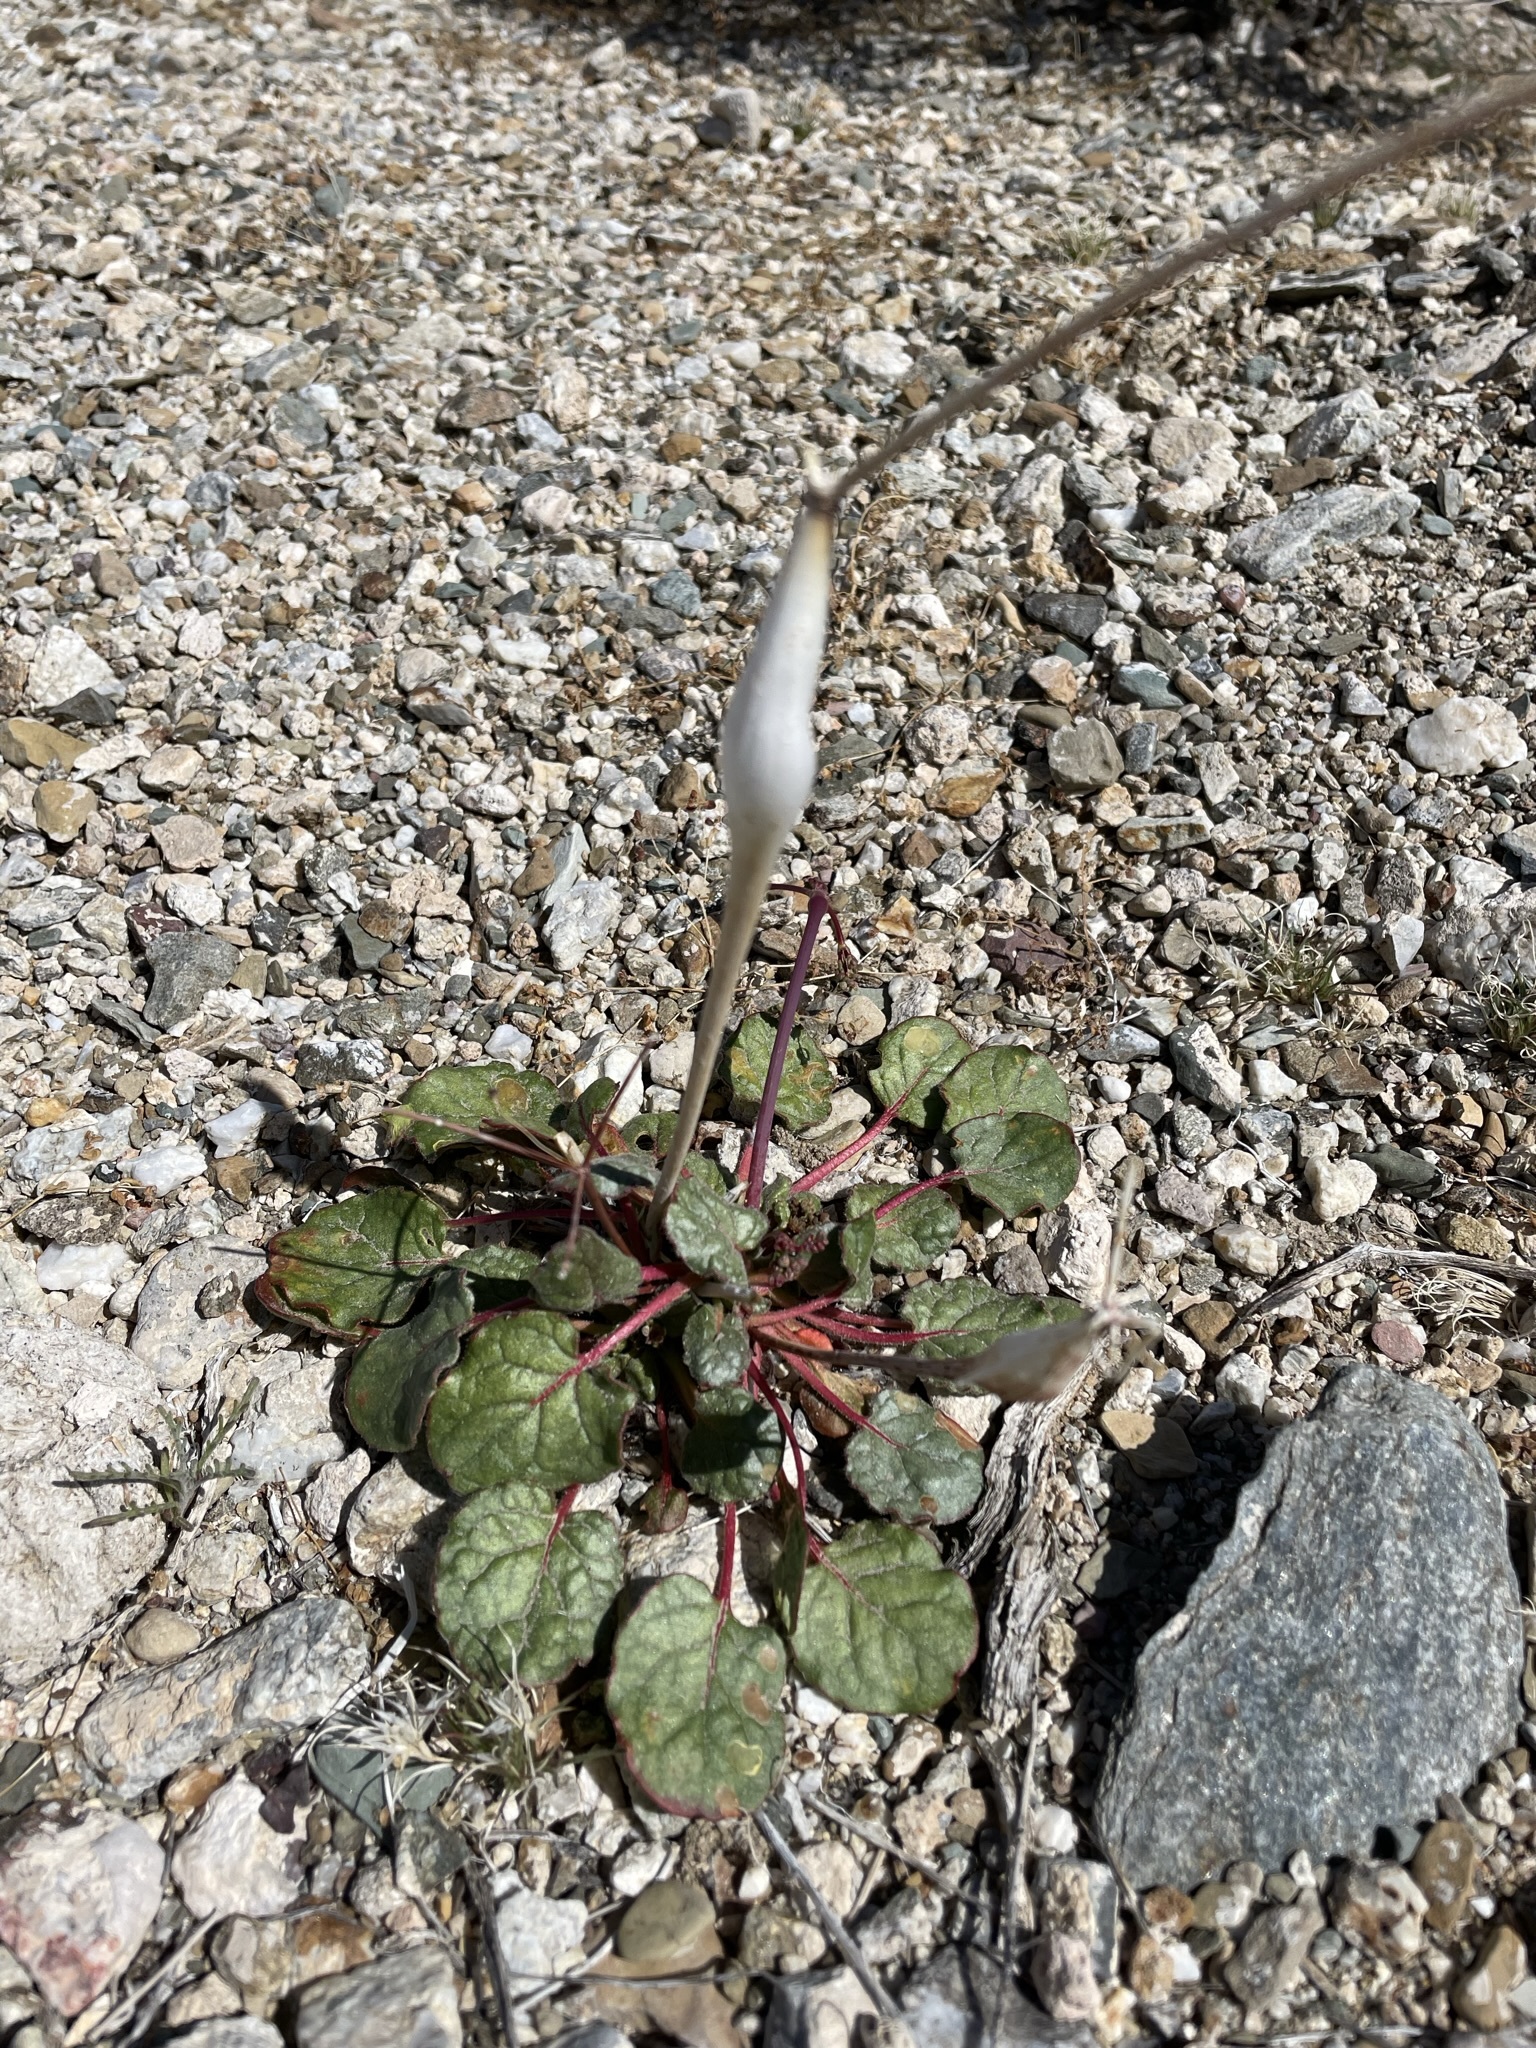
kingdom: Plantae
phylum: Tracheophyta
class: Magnoliopsida
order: Caryophyllales
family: Polygonaceae
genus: Eriogonum
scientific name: Eriogonum inflatum
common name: Desert trumpet
